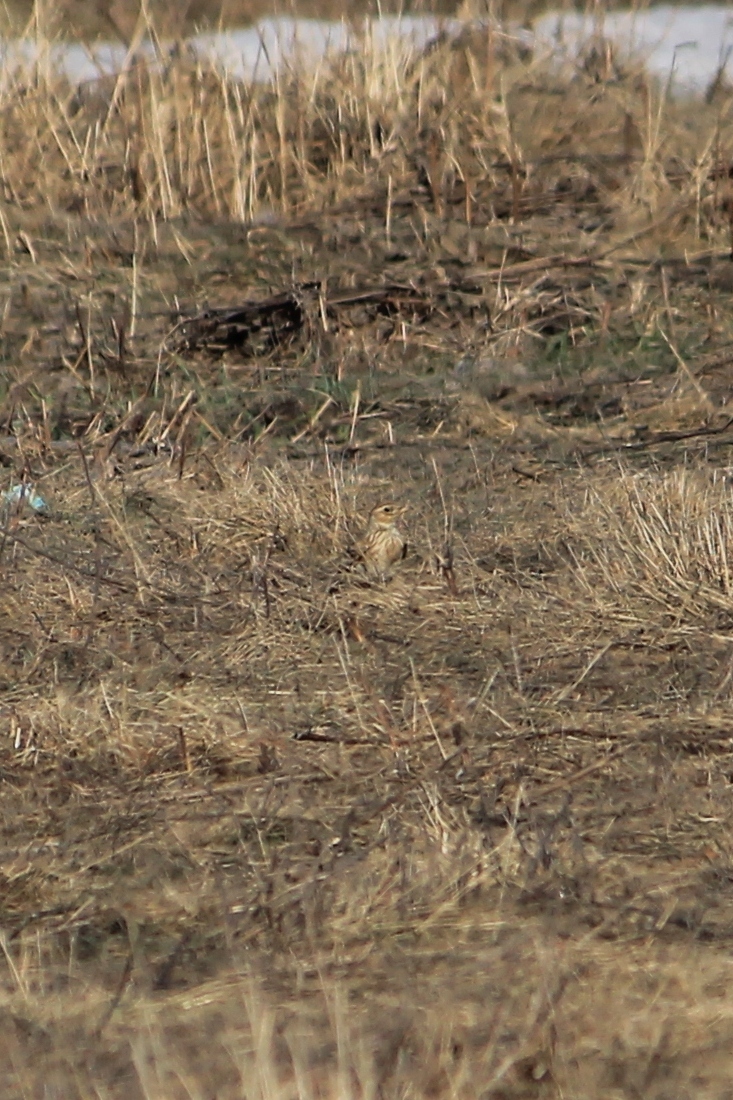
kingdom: Animalia
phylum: Chordata
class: Aves
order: Passeriformes
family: Alaudidae
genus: Alauda
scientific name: Alauda arvensis
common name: Eurasian skylark
